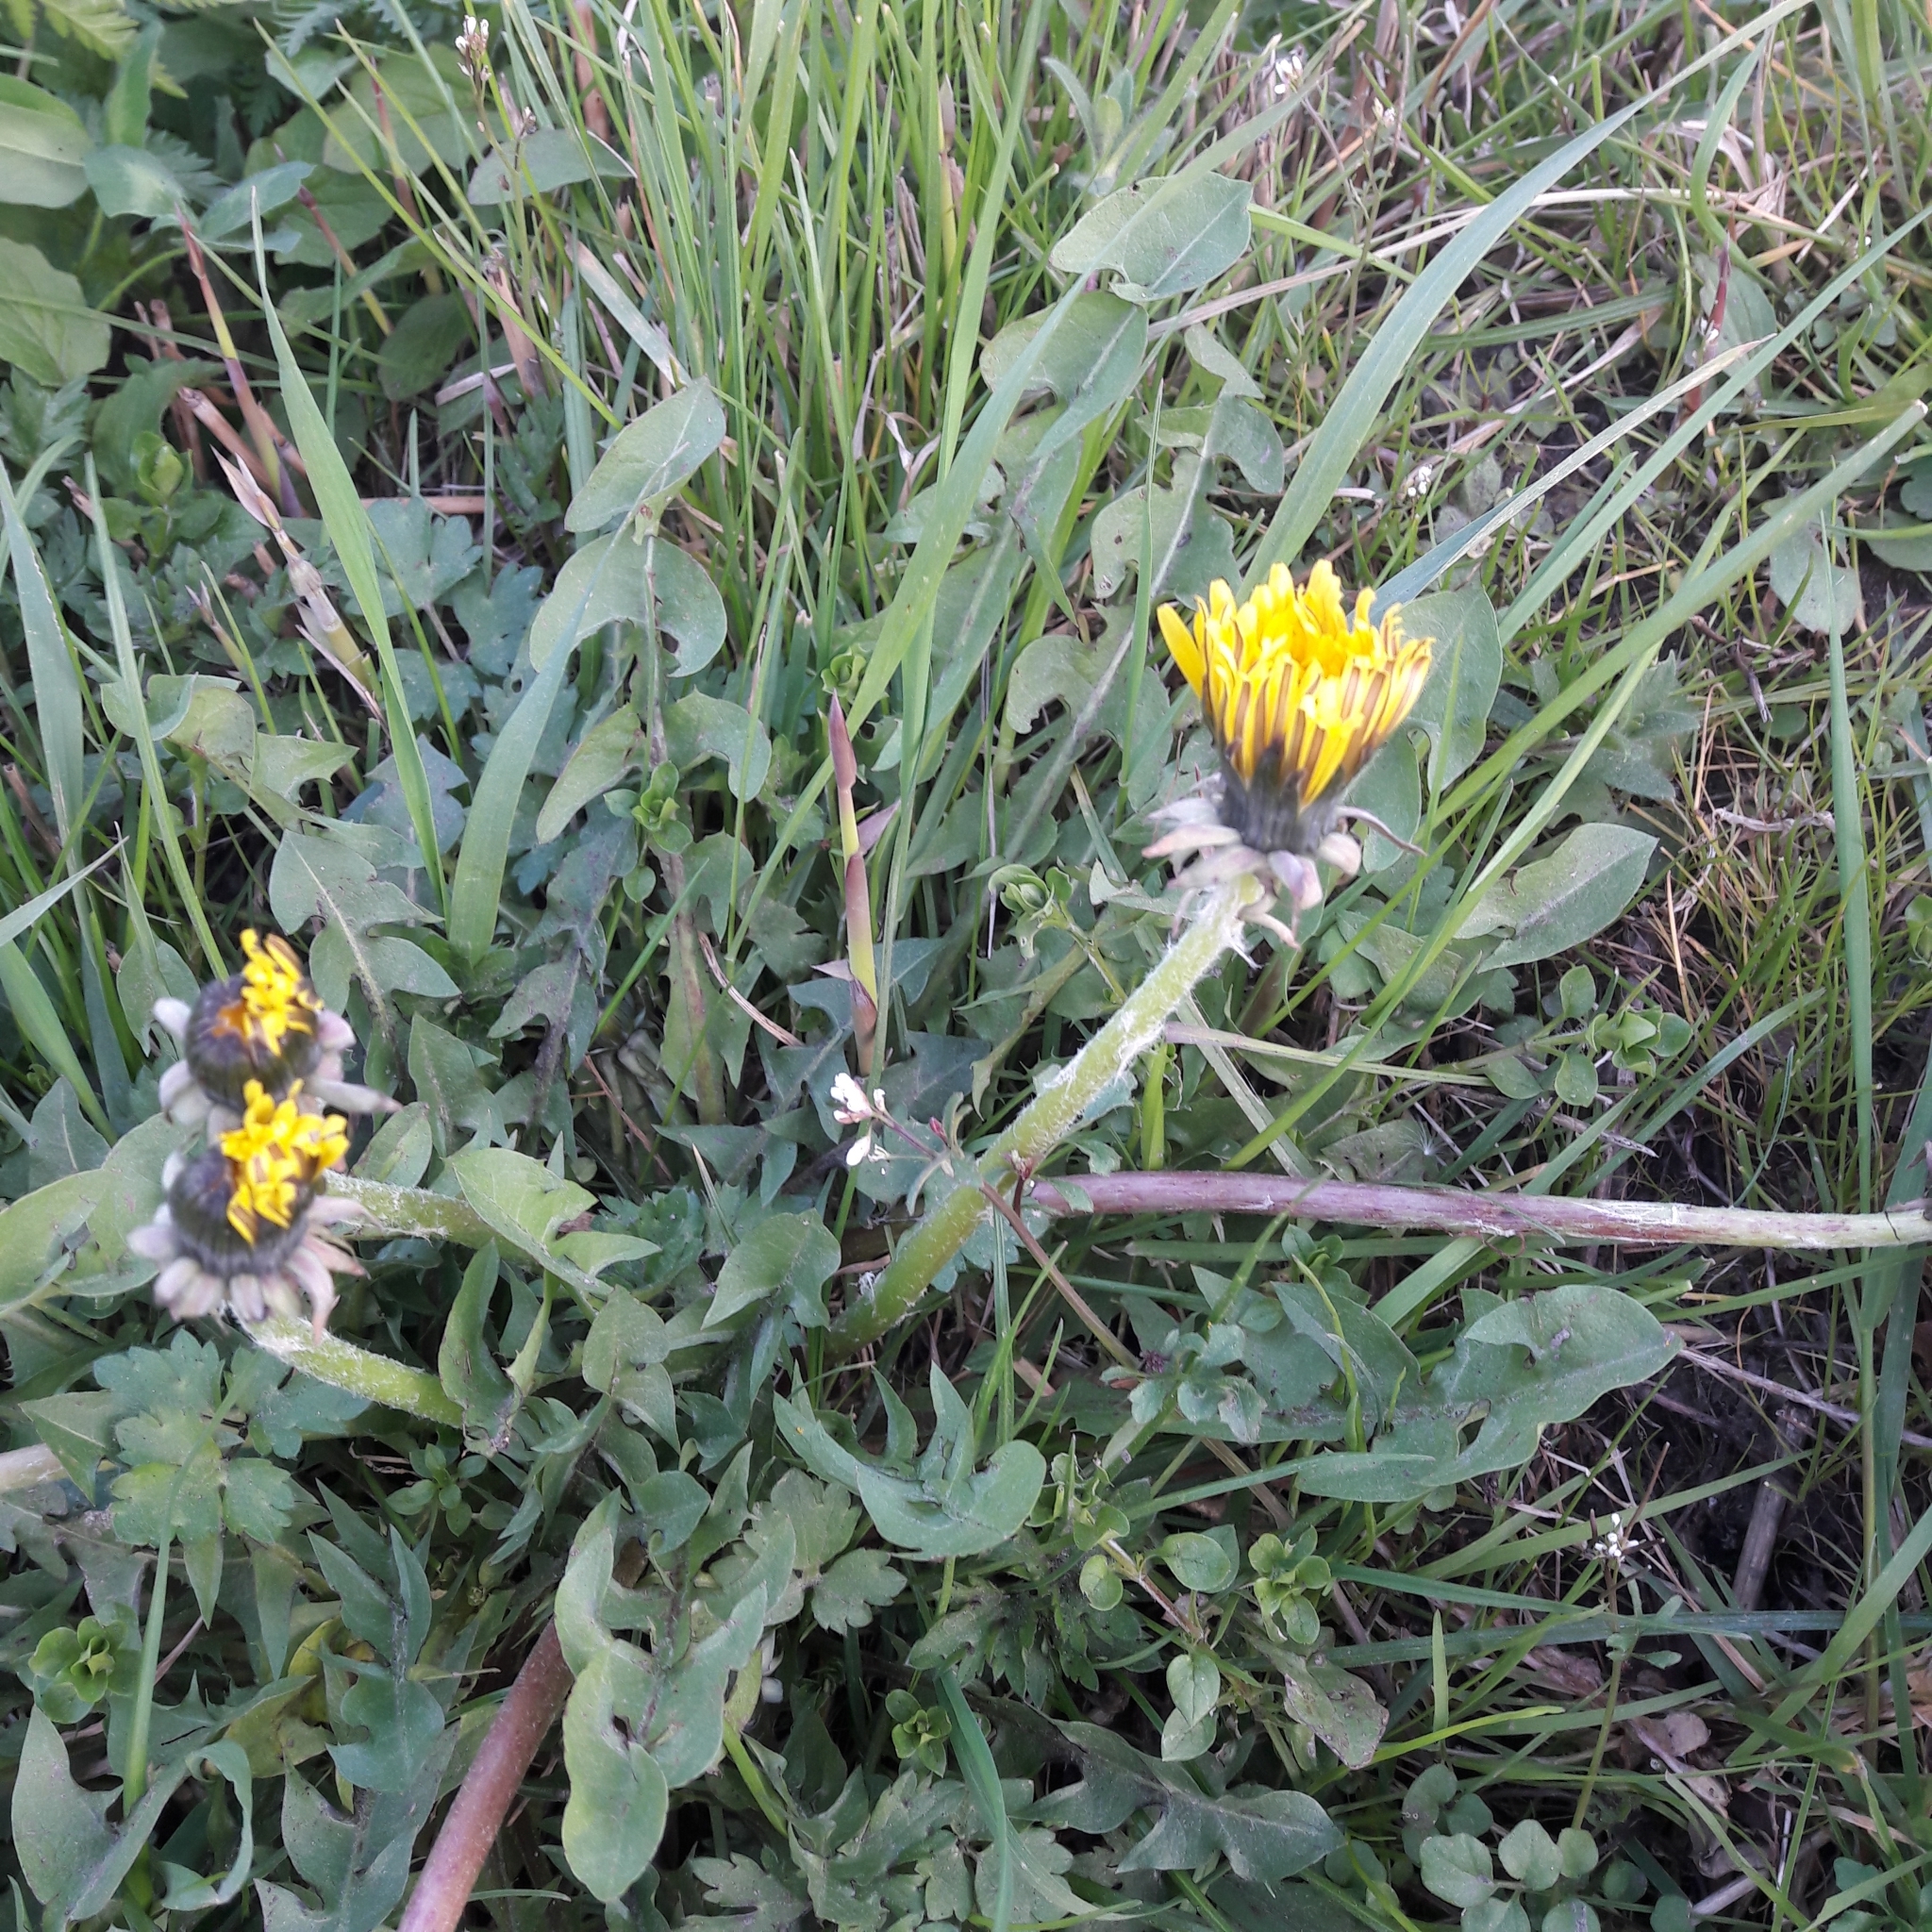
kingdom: Plantae
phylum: Tracheophyta
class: Magnoliopsida
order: Asterales
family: Asteraceae
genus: Taraxacum
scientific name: Taraxacum officinale
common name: Common dandelion
